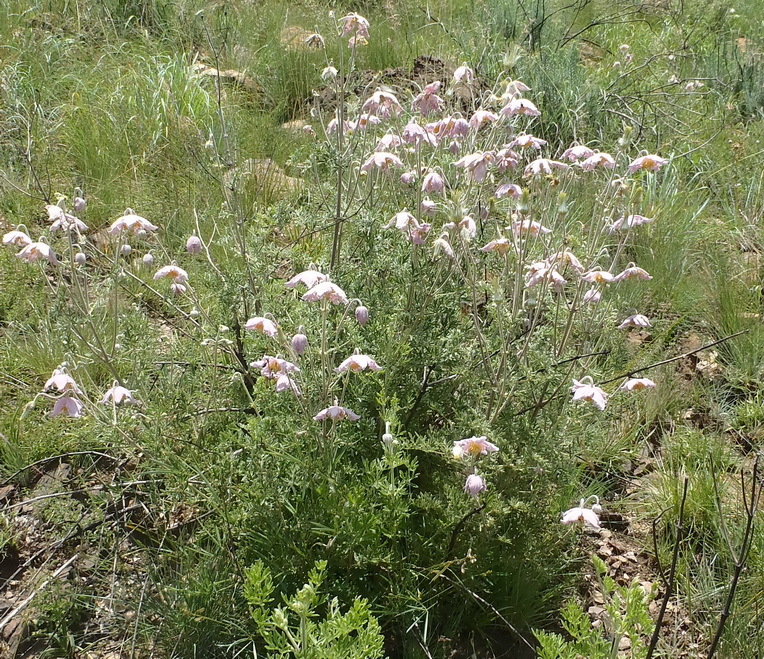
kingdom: Plantae
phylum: Tracheophyta
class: Magnoliopsida
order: Ranunculales
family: Ranunculaceae
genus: Clematis
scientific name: Clematis villosa
